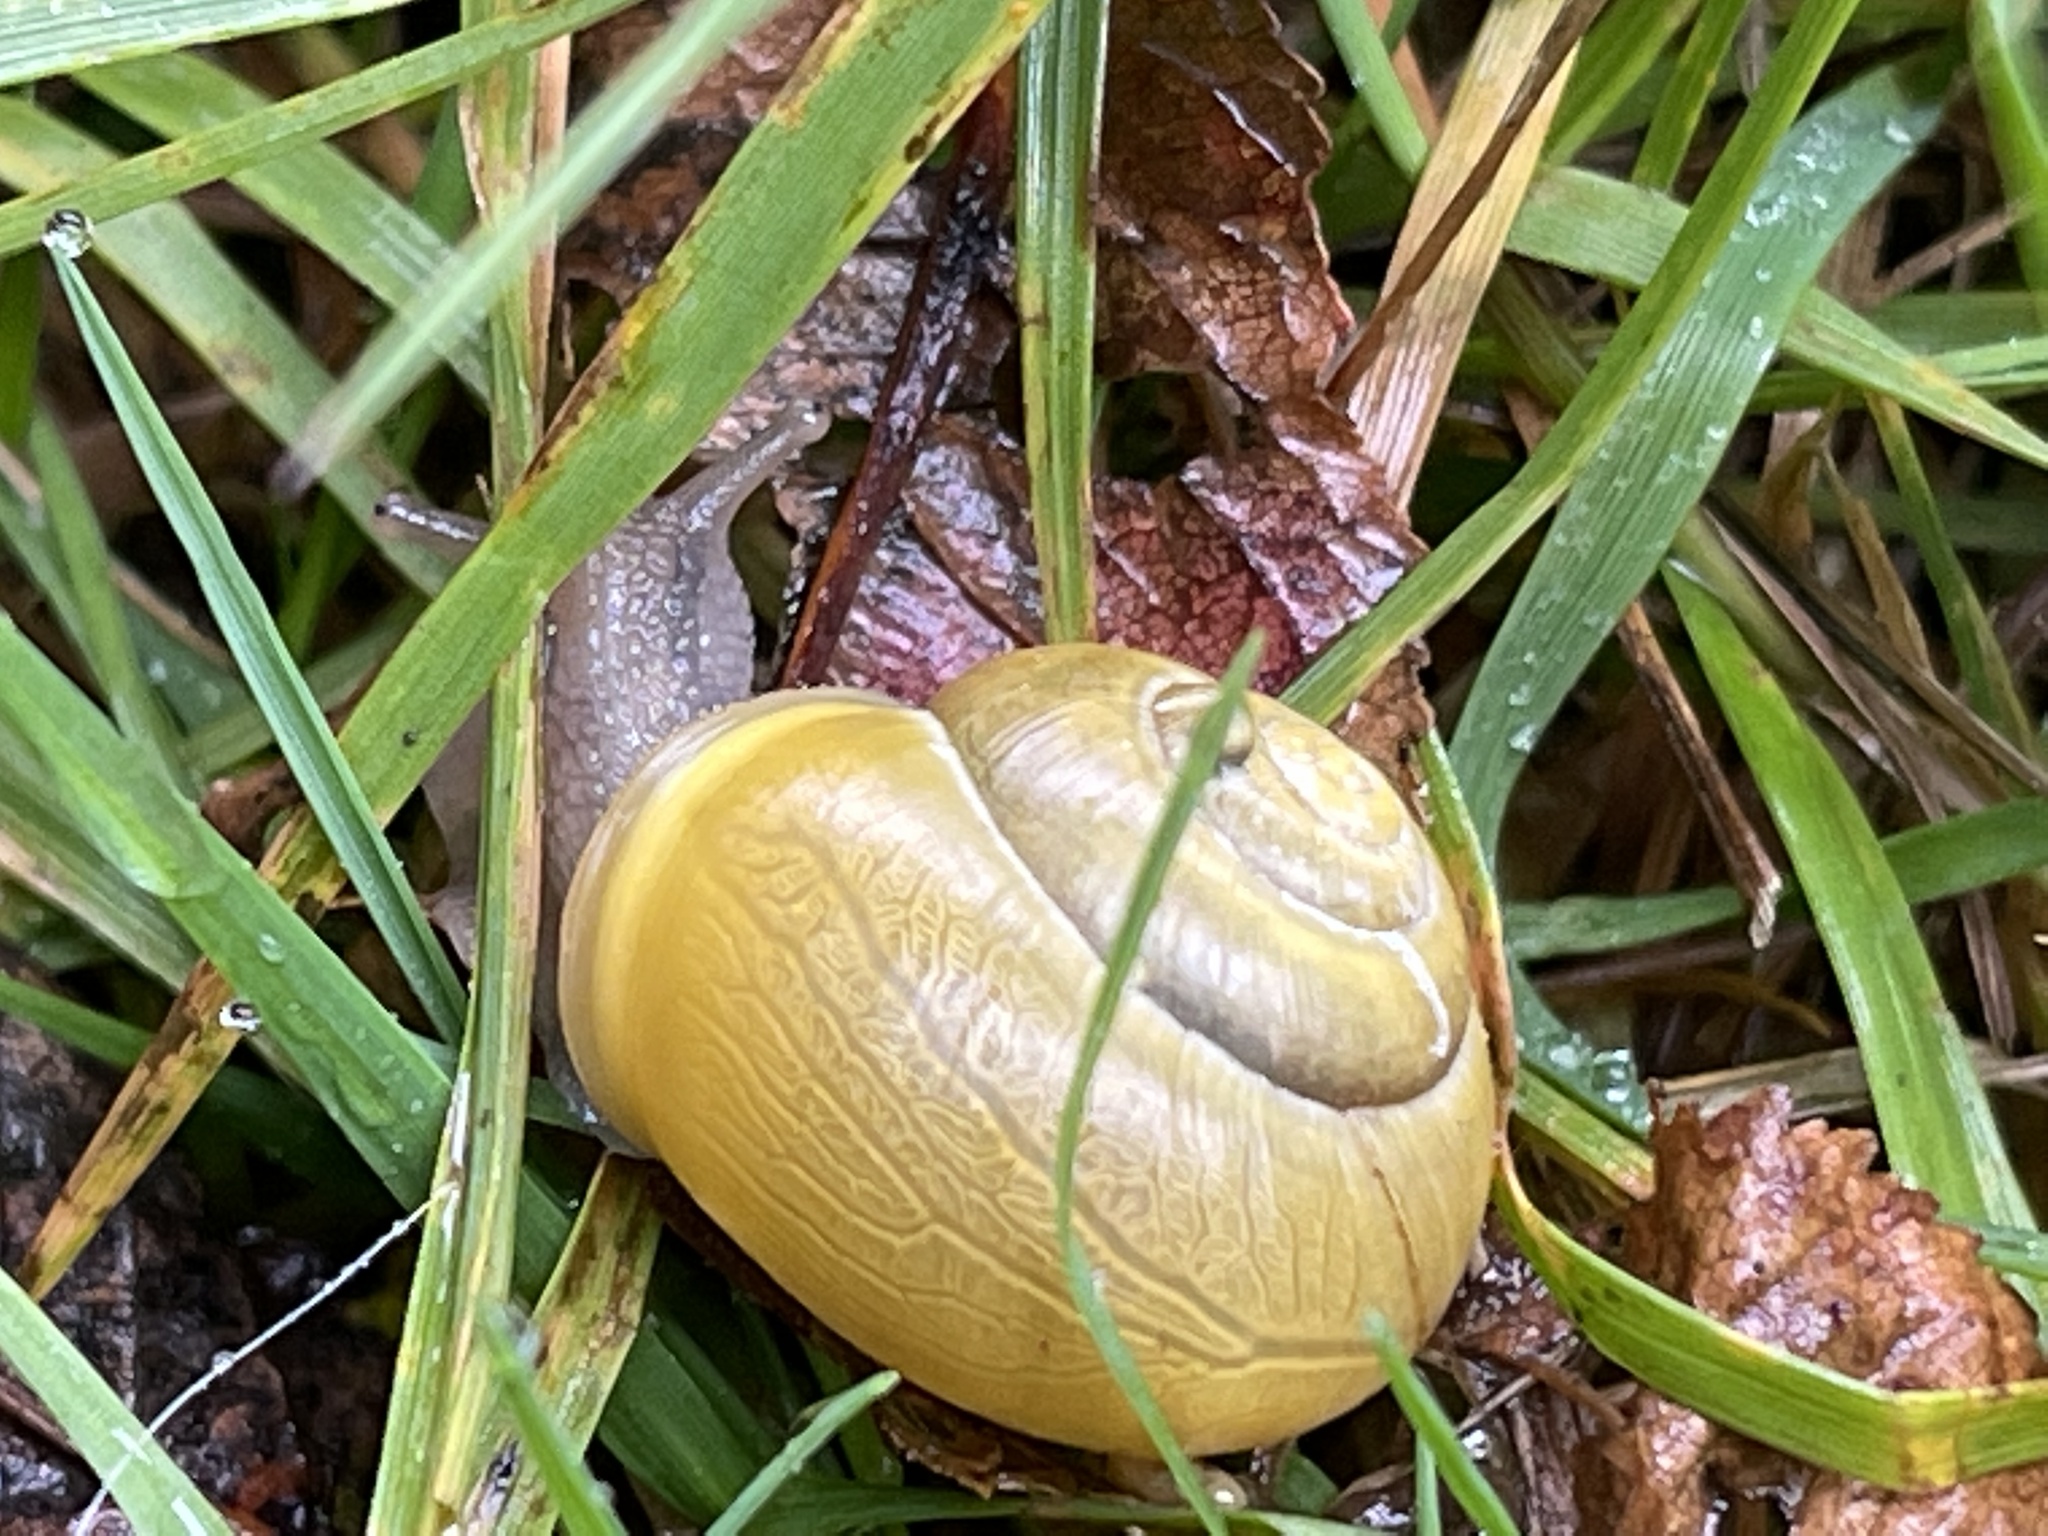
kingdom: Animalia
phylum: Mollusca
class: Gastropoda
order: Stylommatophora
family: Helicidae
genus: Cepaea
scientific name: Cepaea hortensis
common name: White-lip gardensnail
